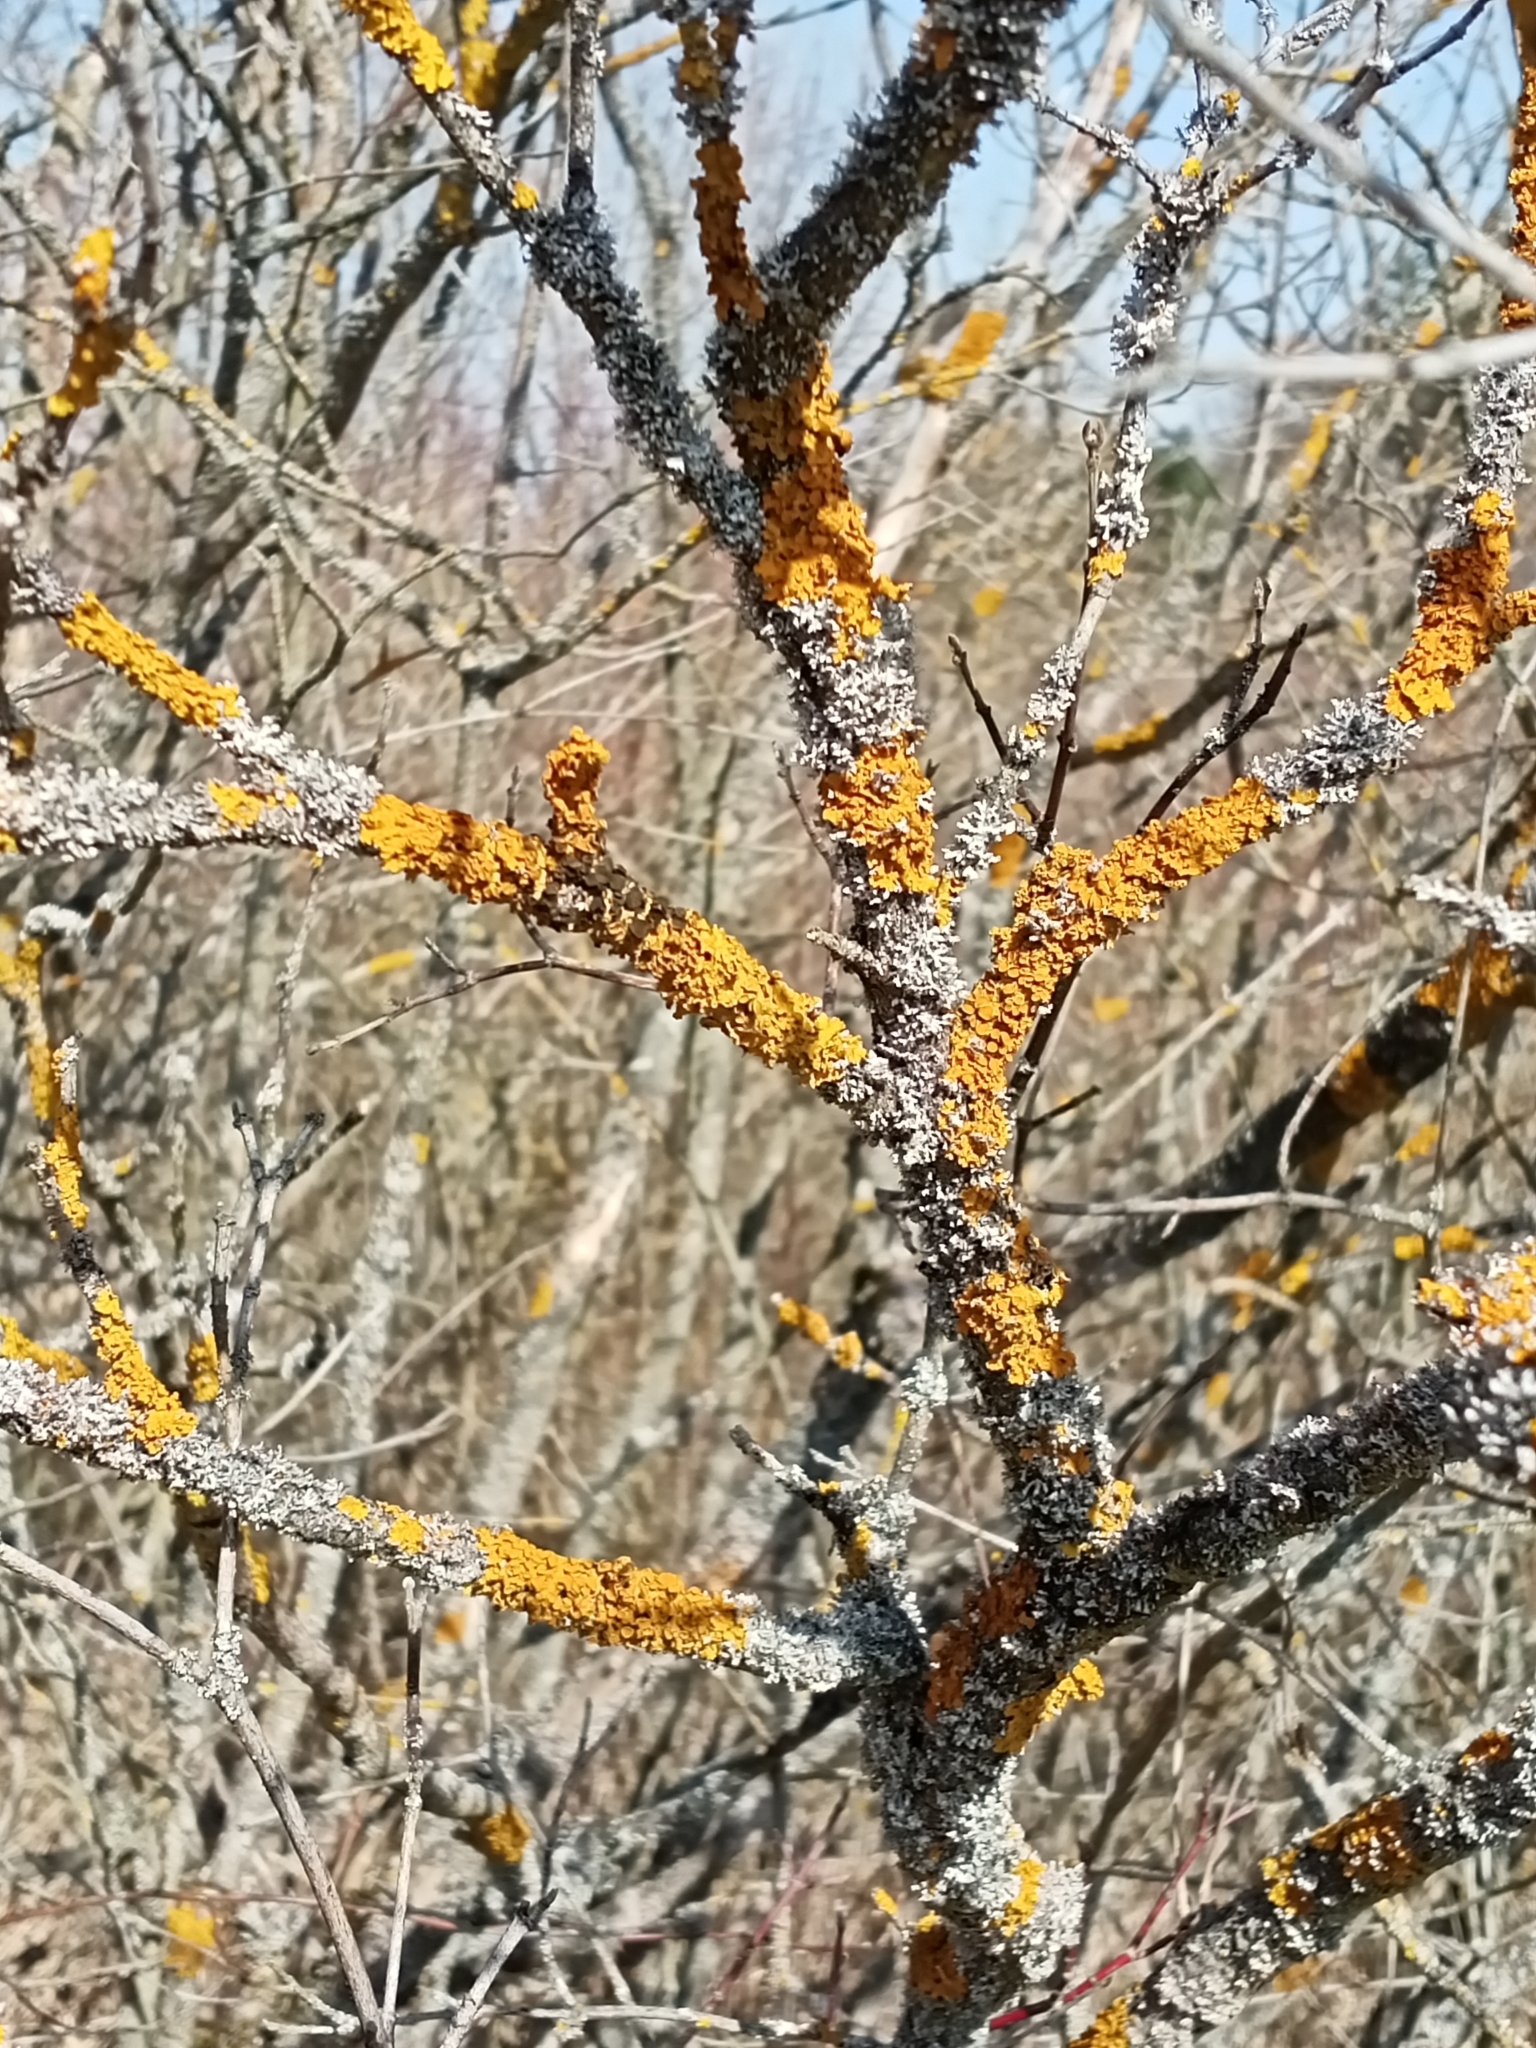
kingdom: Fungi
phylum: Ascomycota
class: Lecanoromycetes
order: Teloschistales
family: Teloschistaceae
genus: Xanthoria
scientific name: Xanthoria parietina
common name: Common orange lichen
